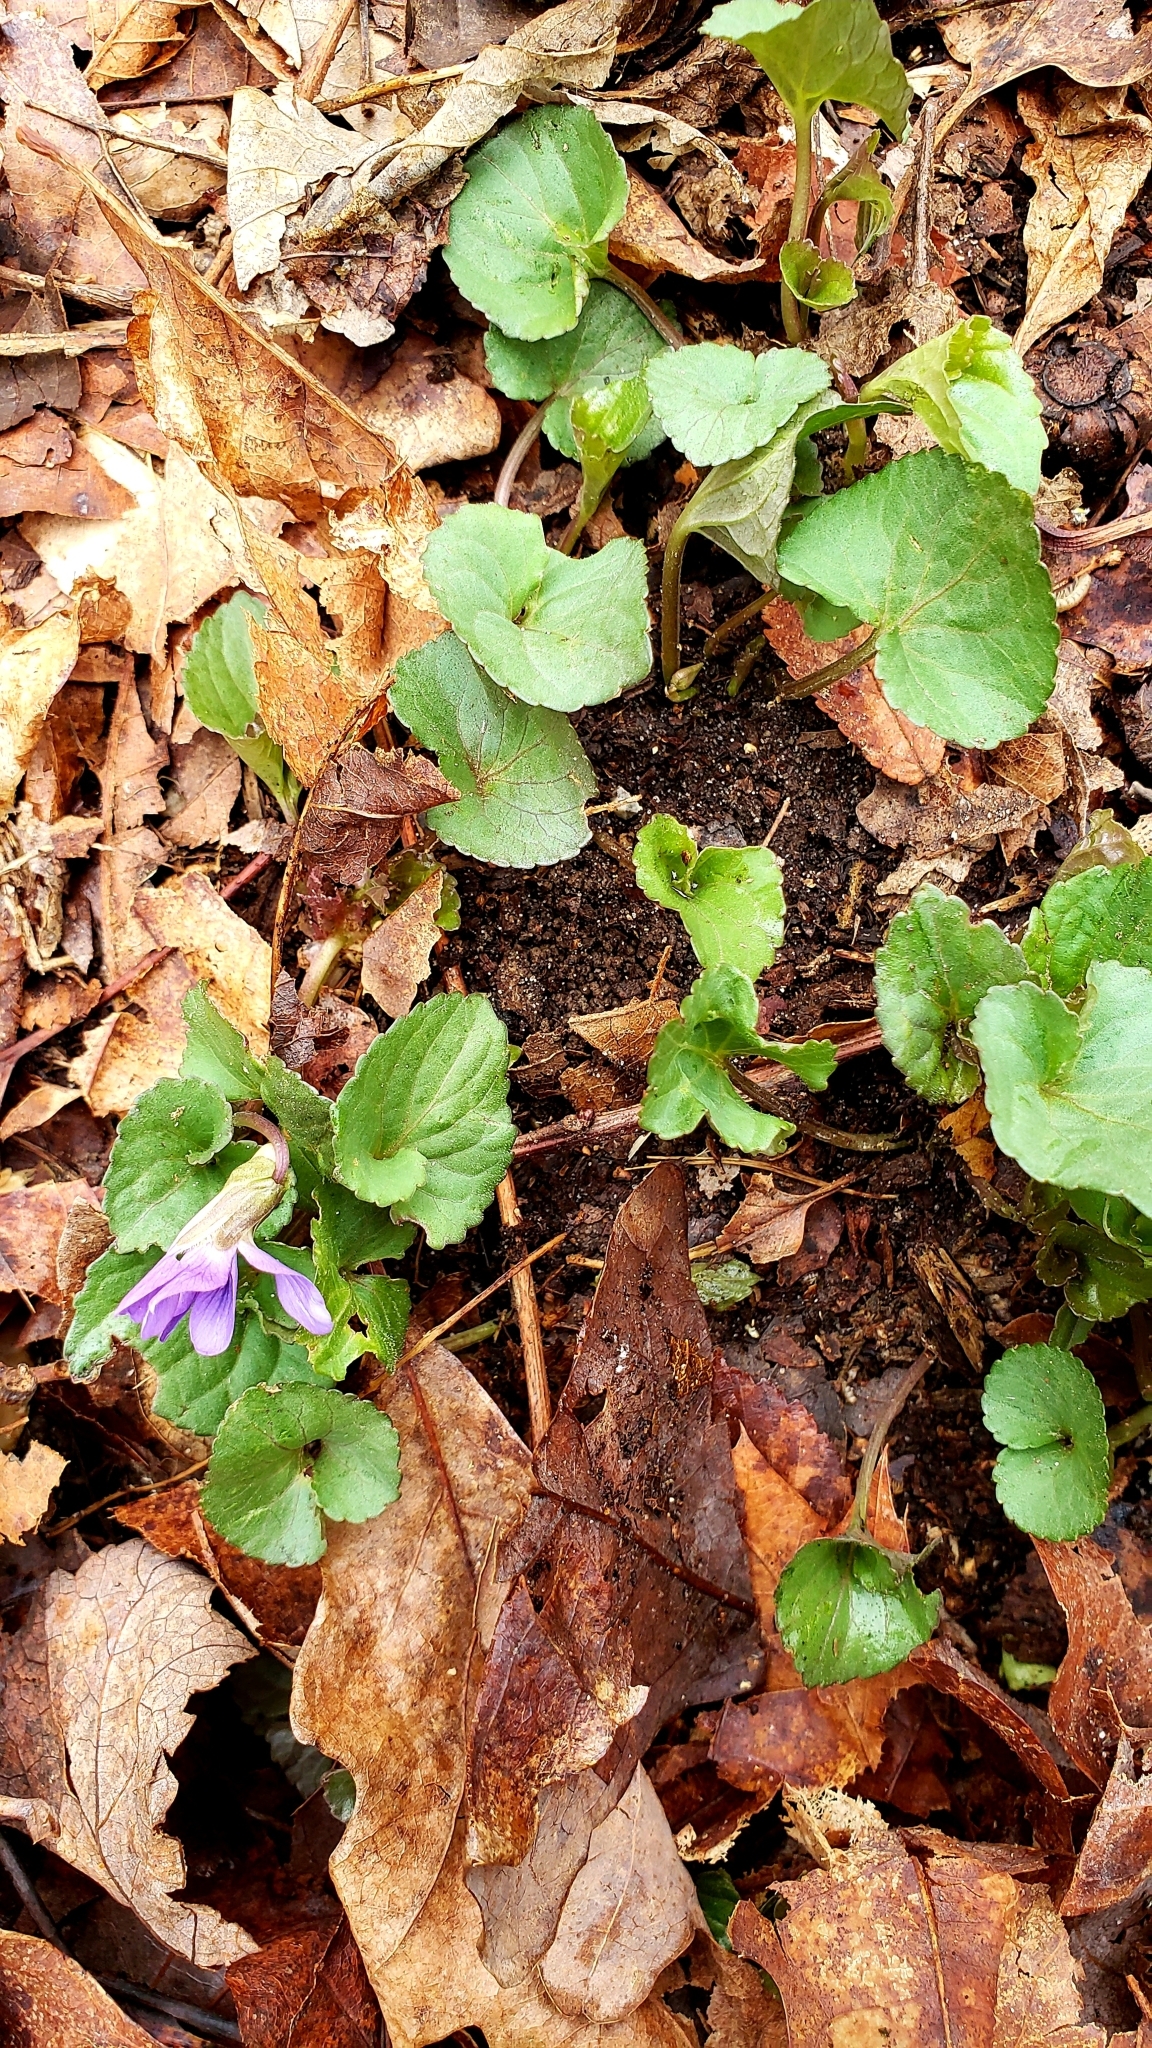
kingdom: Plantae
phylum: Tracheophyta
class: Magnoliopsida
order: Malpighiales
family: Violaceae
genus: Viola
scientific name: Viola sororia
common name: Dooryard violet
